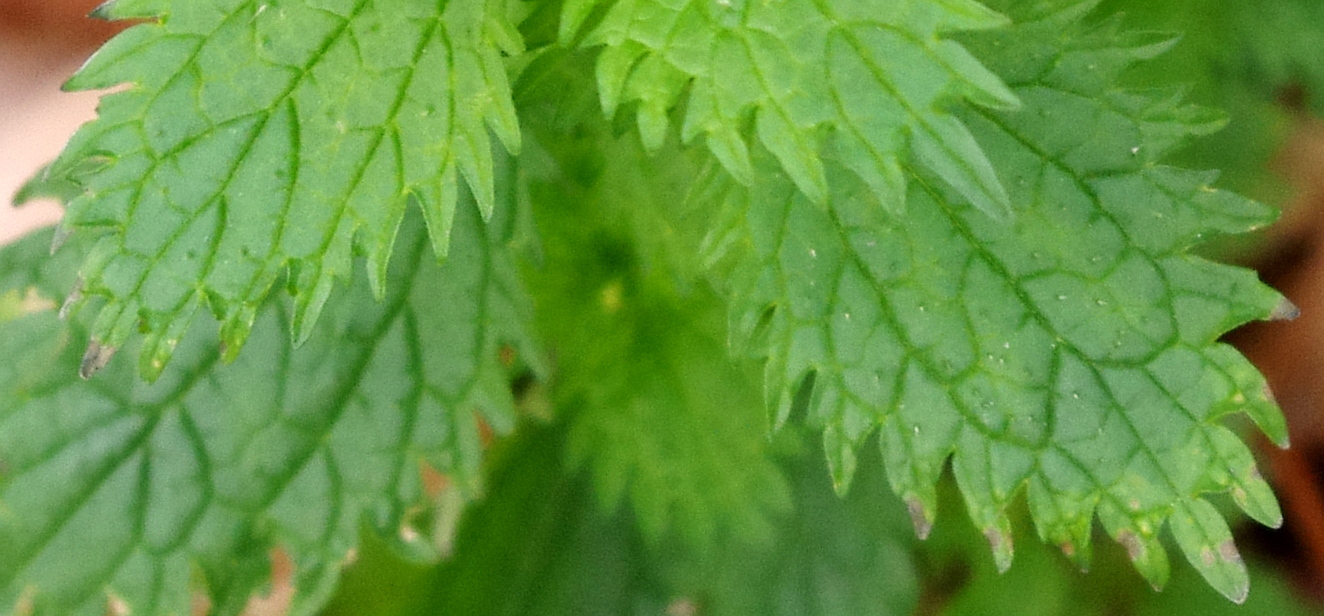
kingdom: Plantae
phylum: Tracheophyta
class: Magnoliopsida
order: Rosales
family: Urticaceae
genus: Urtica
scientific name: Urtica urens
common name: Dwarf nettle
